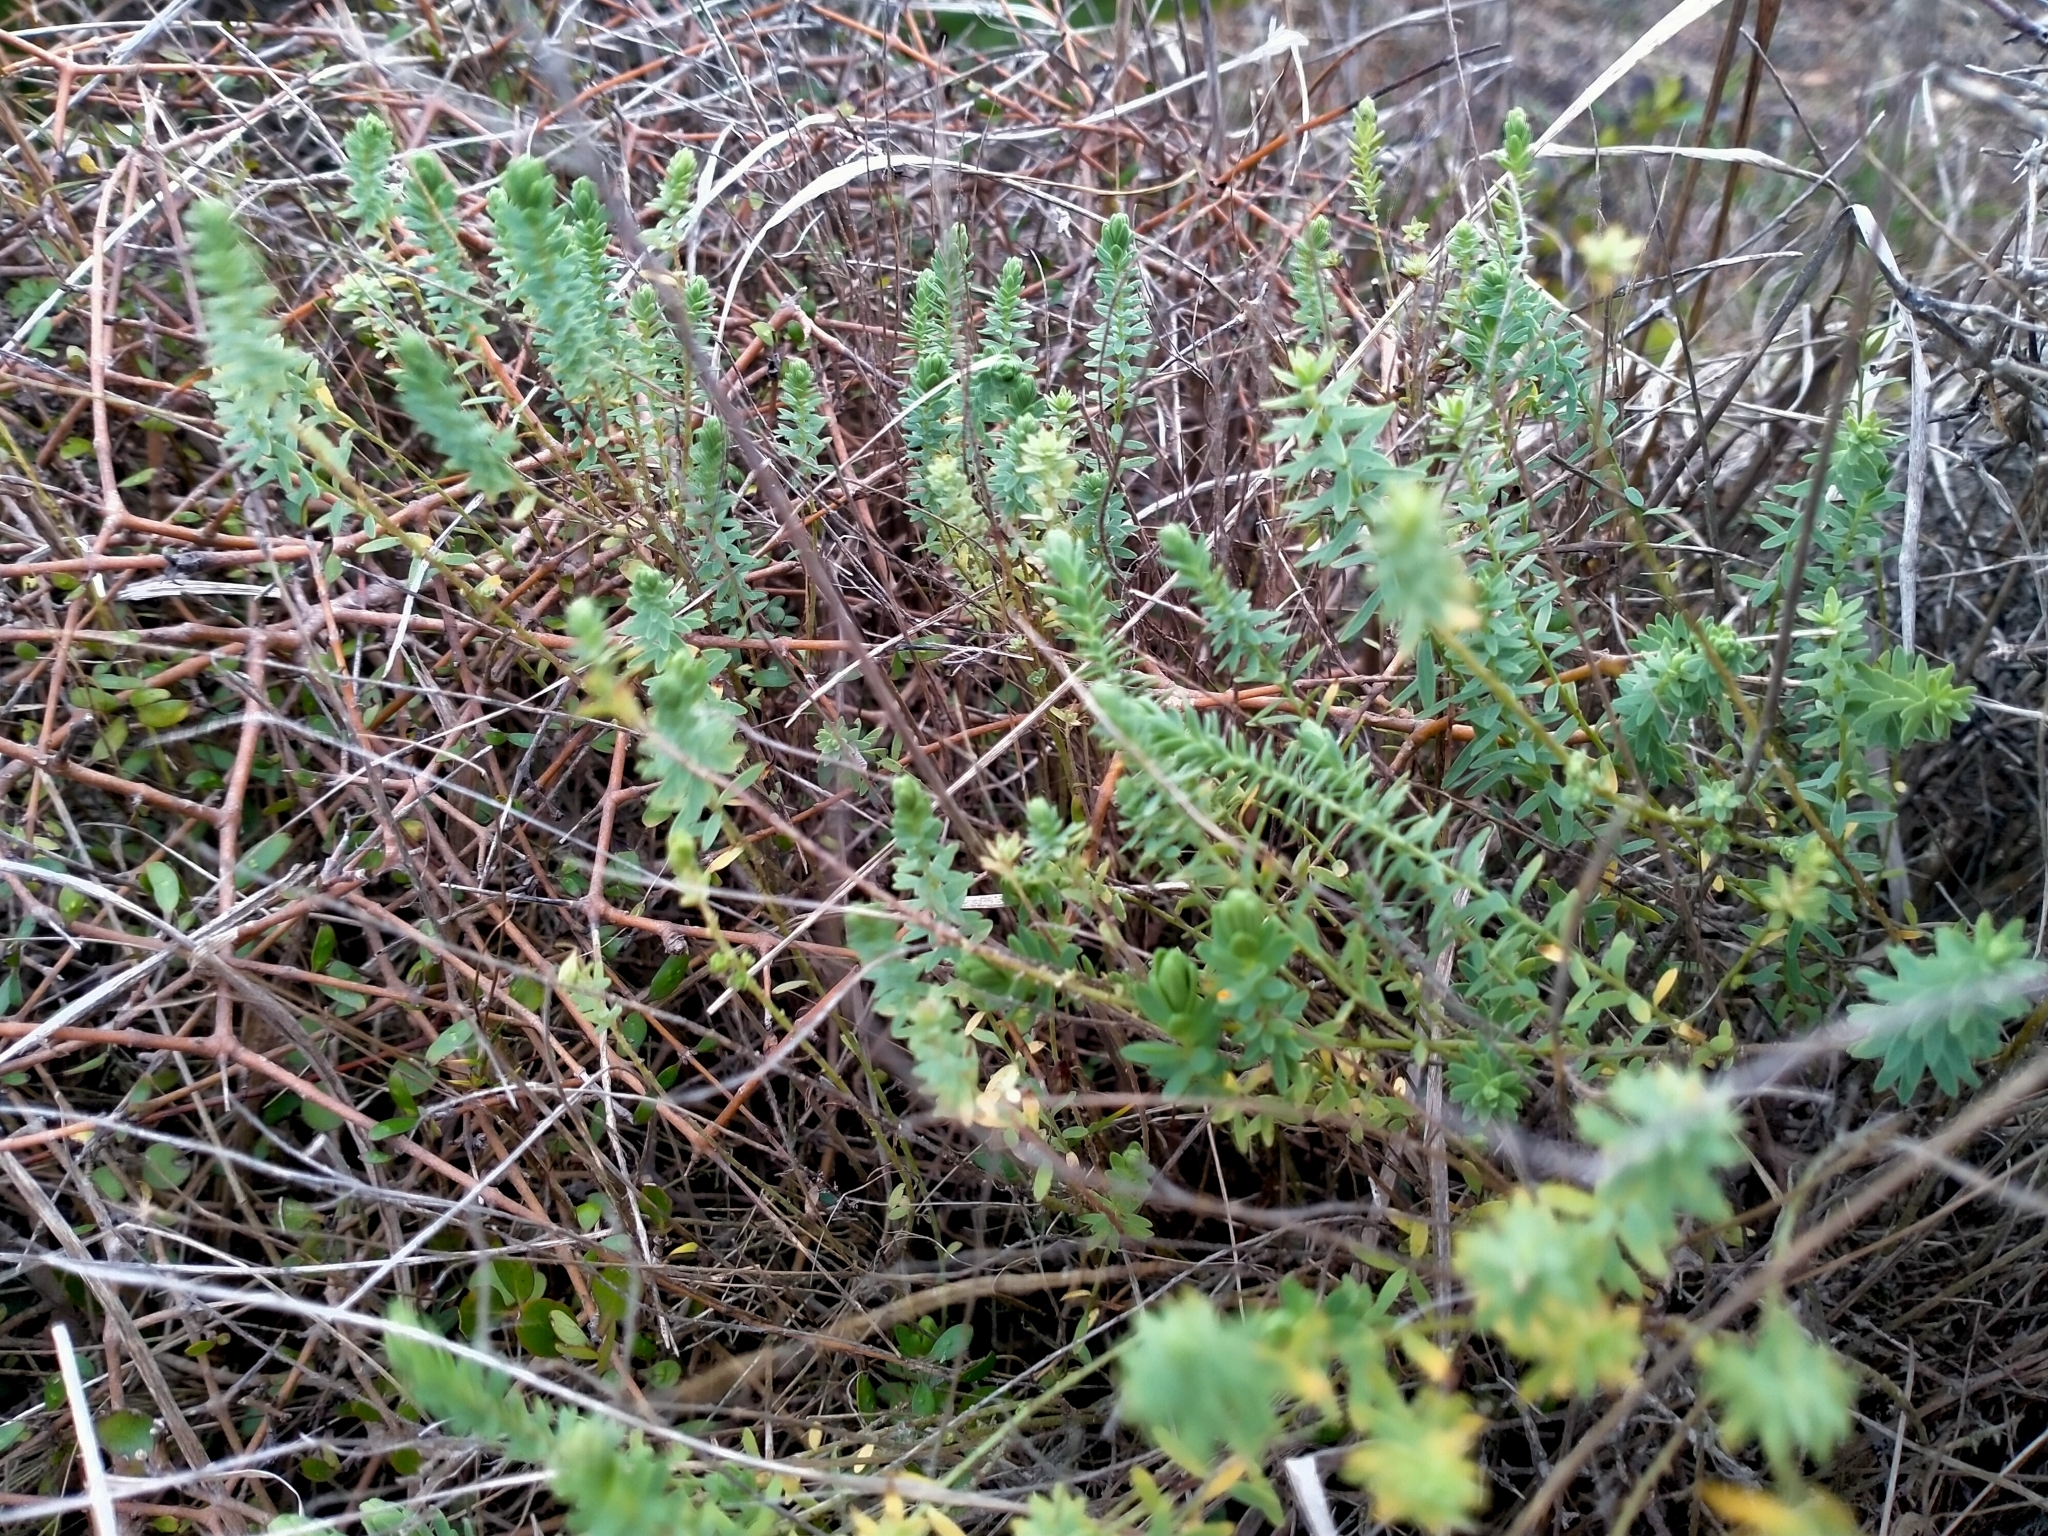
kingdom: Plantae
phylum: Tracheophyta
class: Magnoliopsida
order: Malpighiales
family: Linaceae
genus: Linum
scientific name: Linum monogynum
